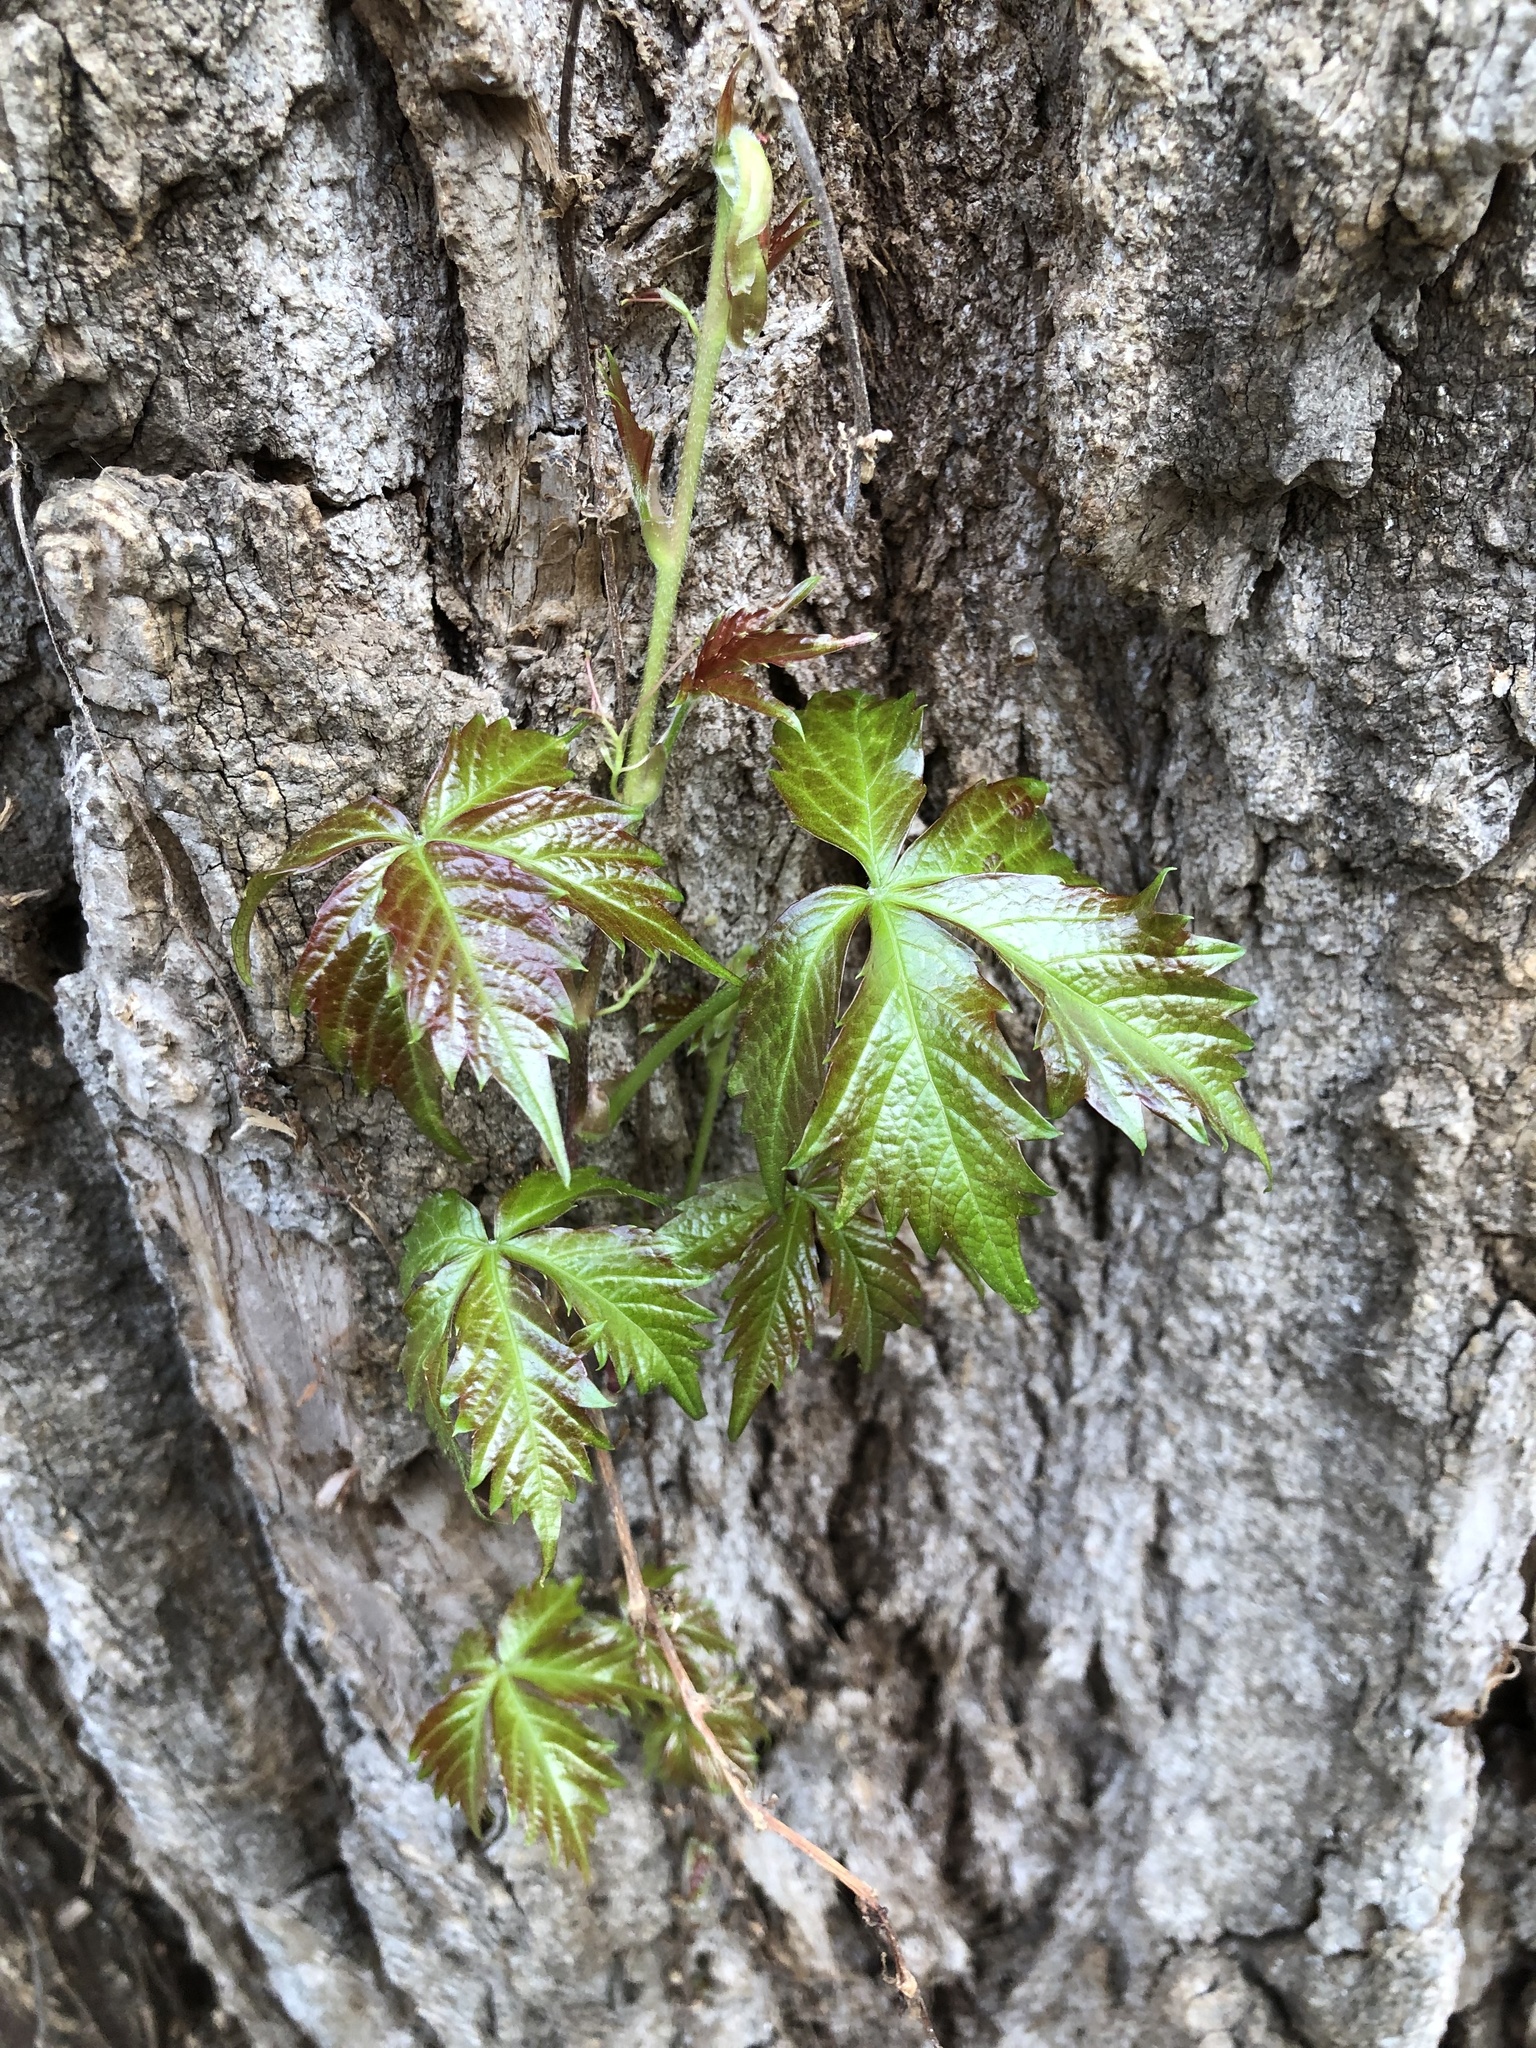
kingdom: Plantae
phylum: Tracheophyta
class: Magnoliopsida
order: Vitales
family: Vitaceae
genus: Parthenocissus
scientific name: Parthenocissus quinquefolia
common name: Virginia-creeper
